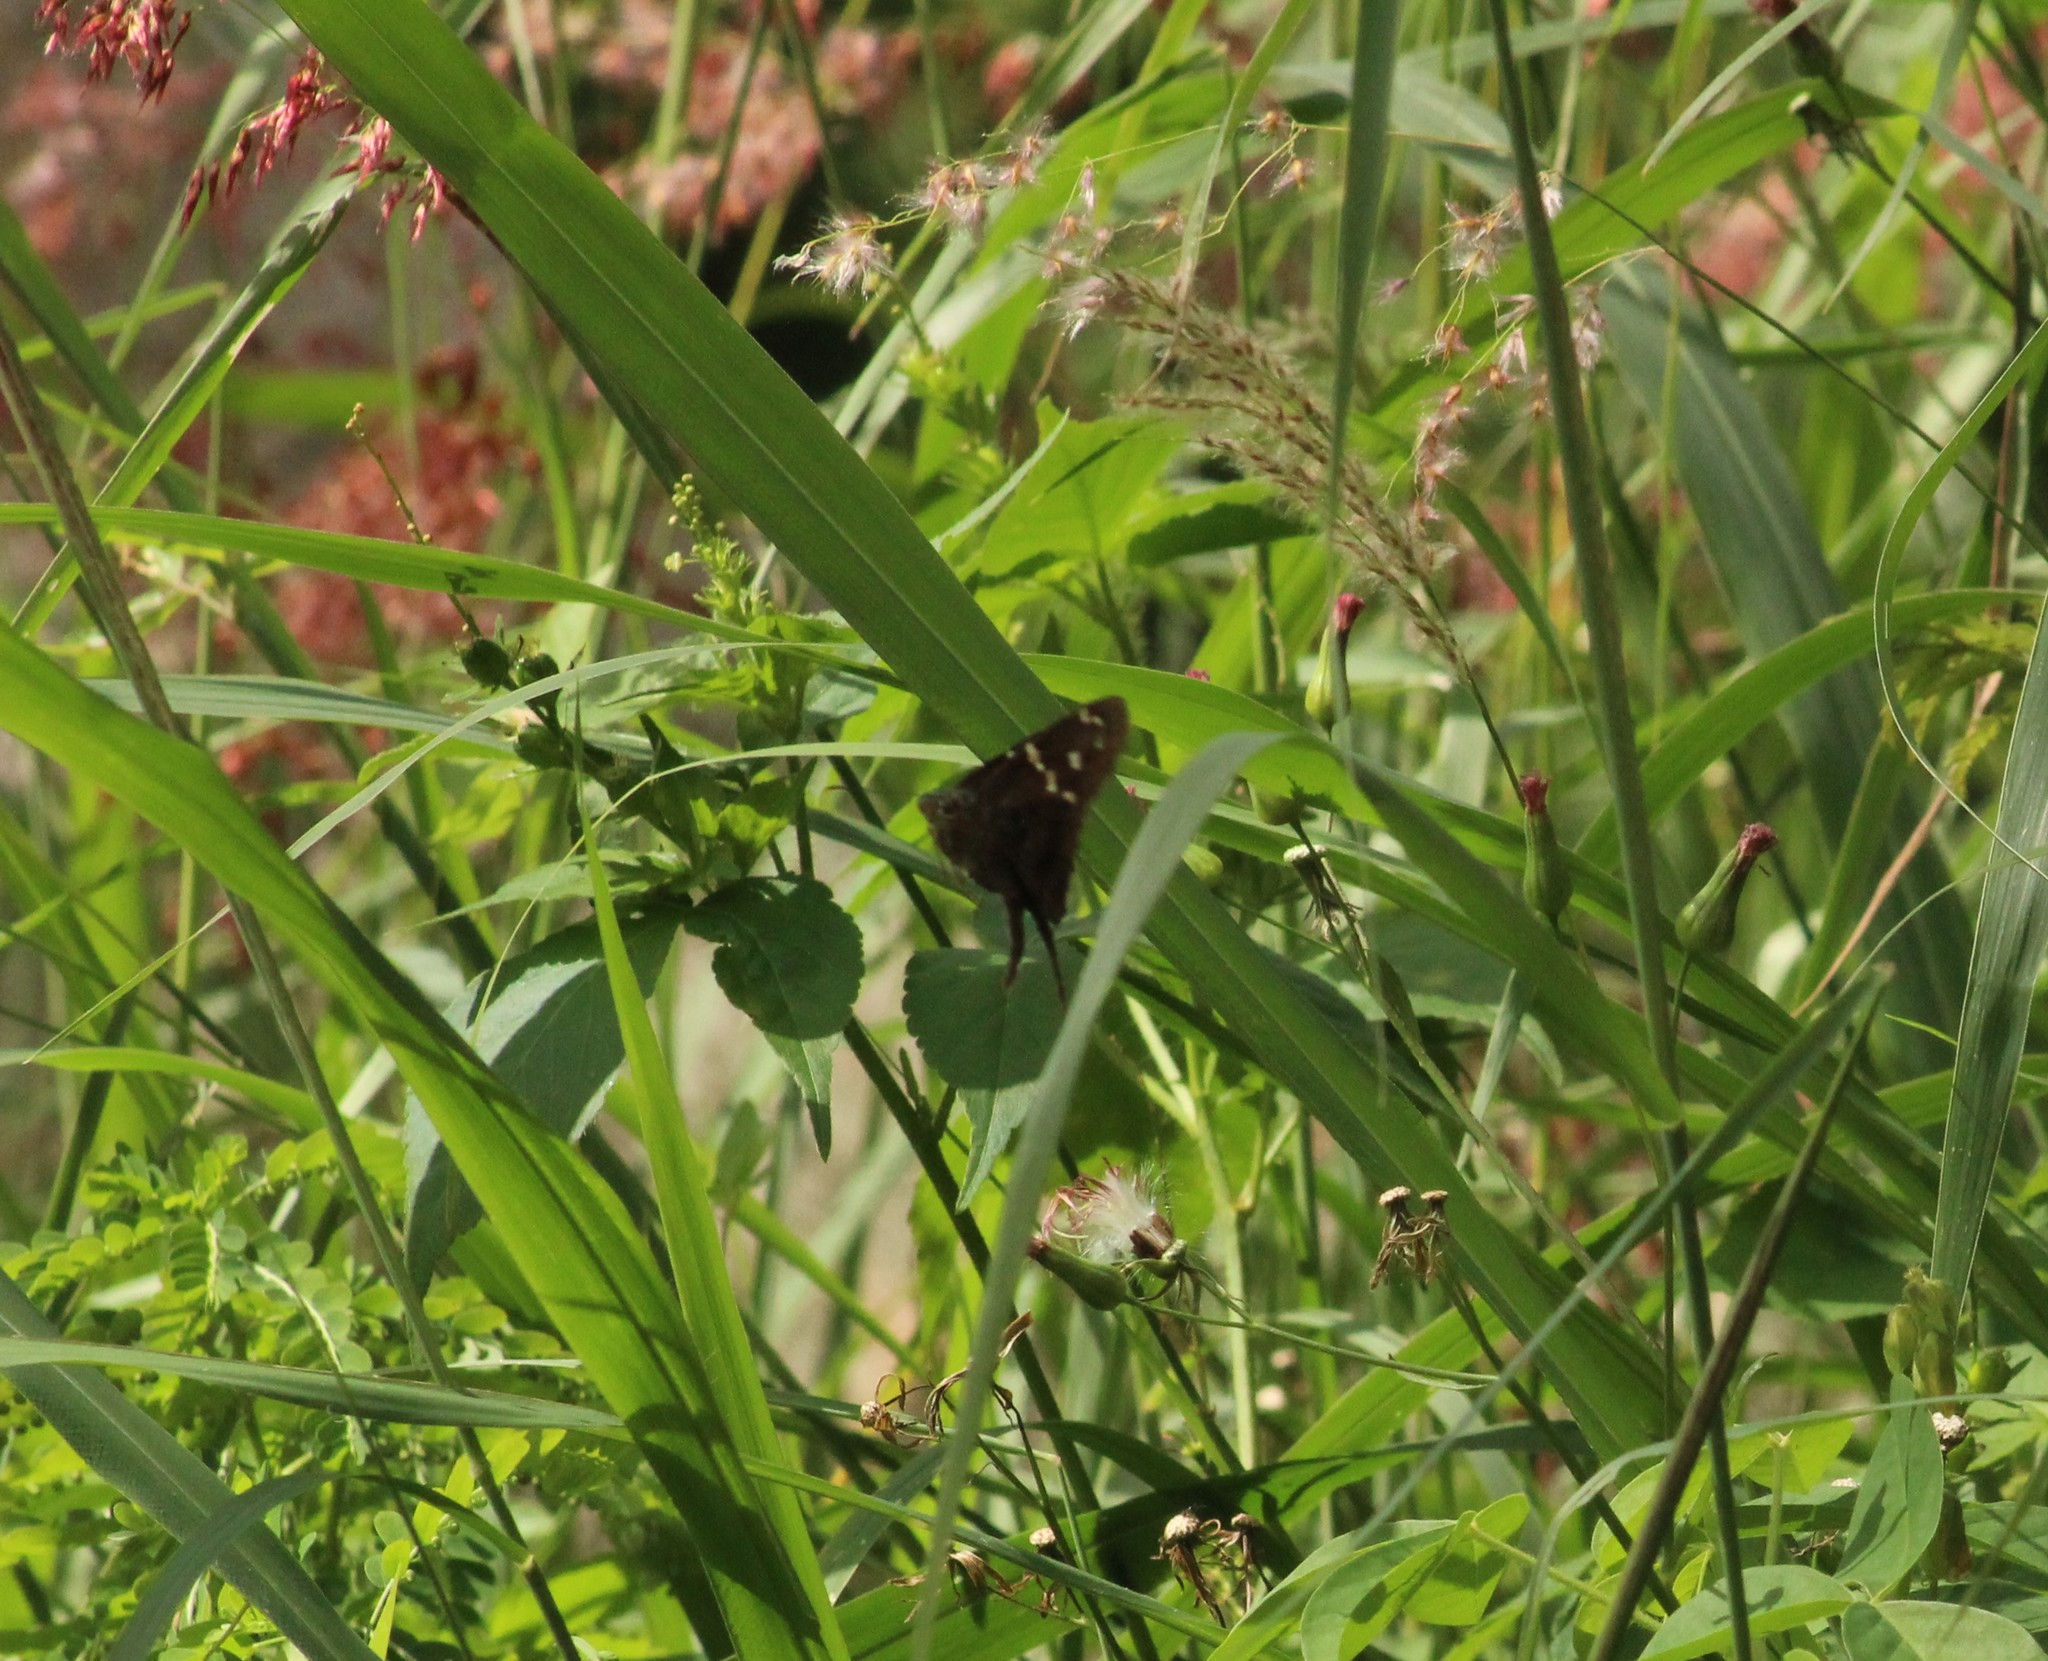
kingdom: Animalia
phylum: Arthropoda
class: Insecta
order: Lepidoptera
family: Hesperiidae
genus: Urbanus
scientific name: Urbanus proteus
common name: Long-tailed skipper
